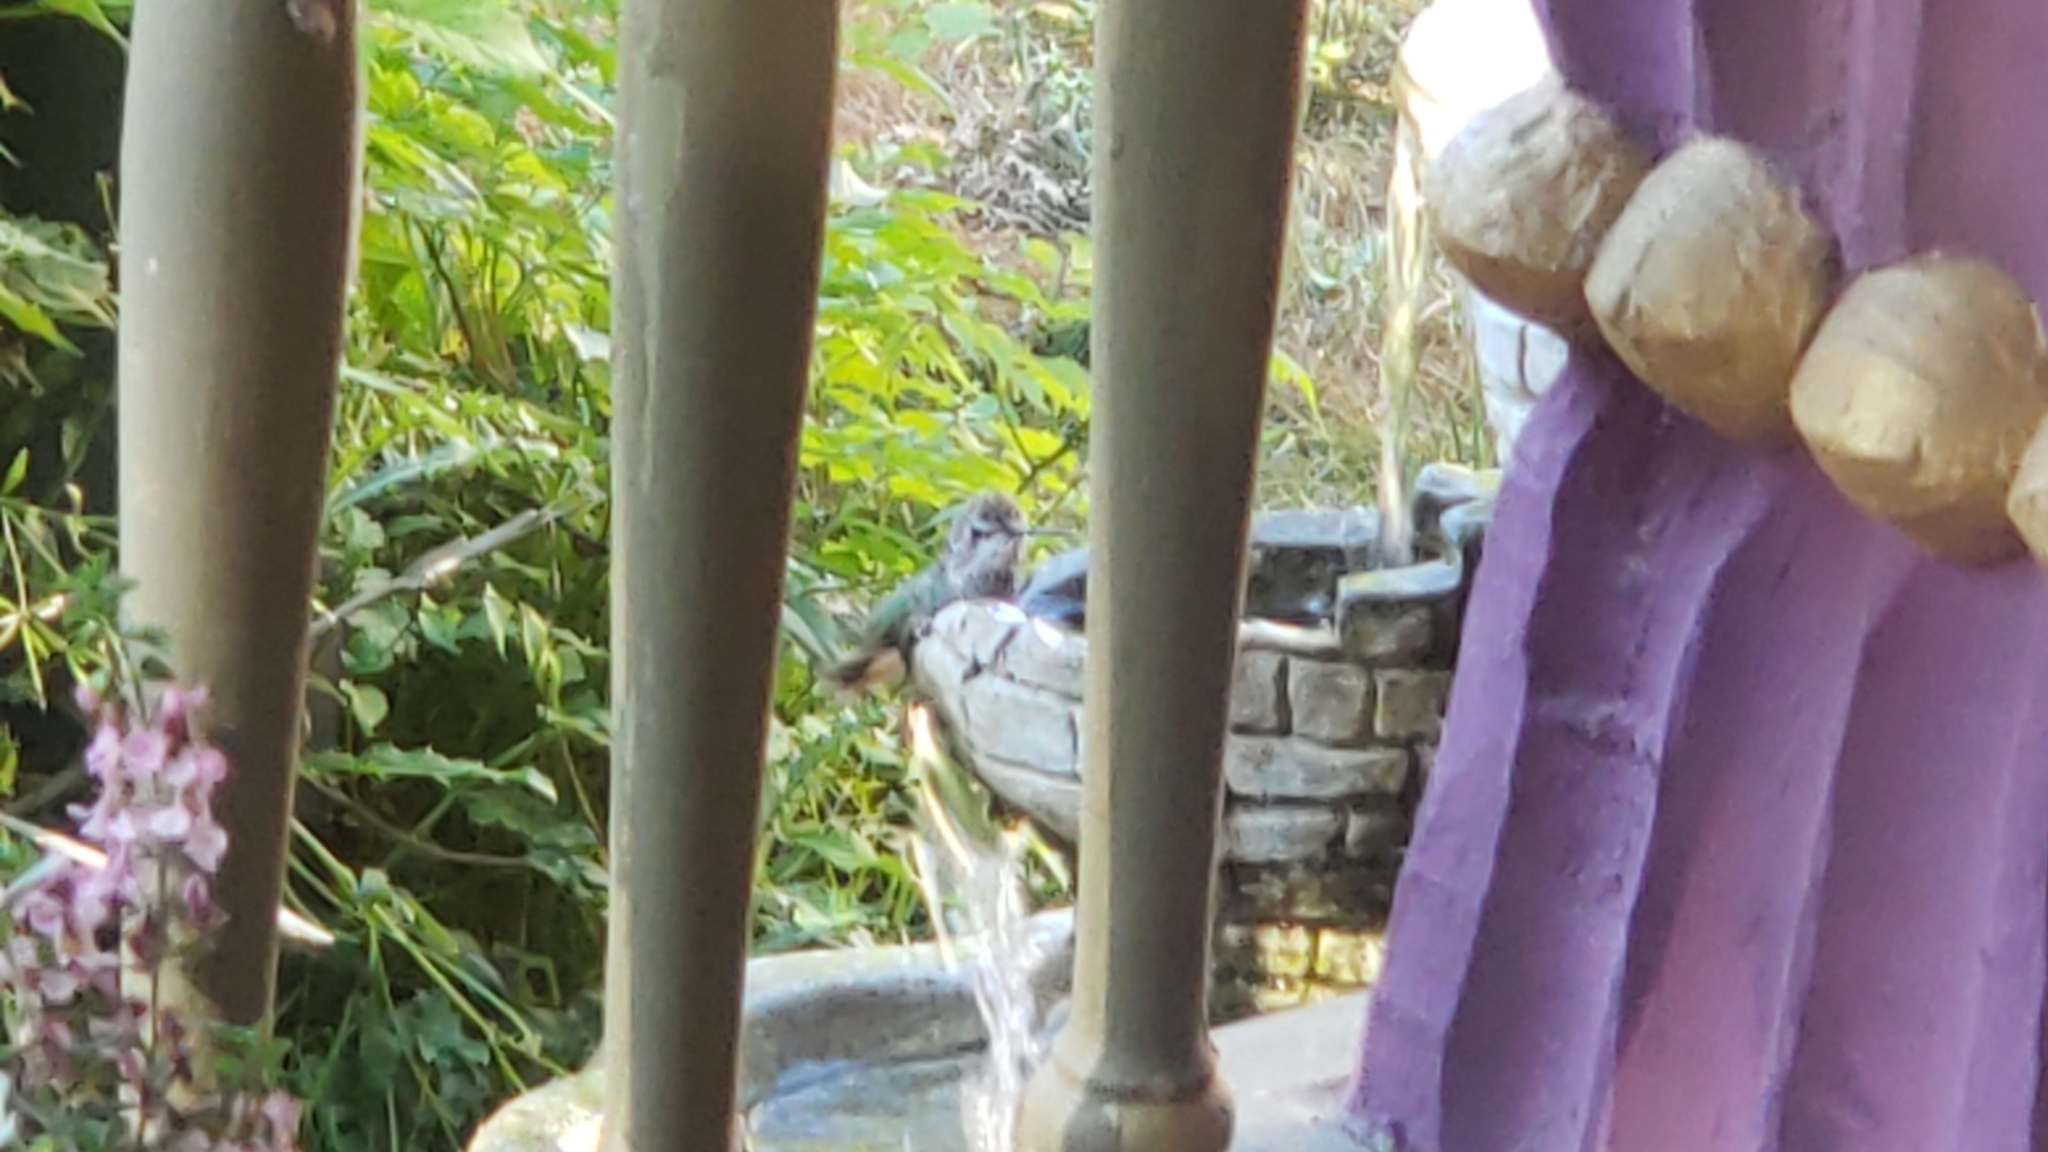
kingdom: Animalia
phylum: Chordata
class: Aves
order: Apodiformes
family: Trochilidae
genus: Calypte
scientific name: Calypte anna
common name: Anna's hummingbird
